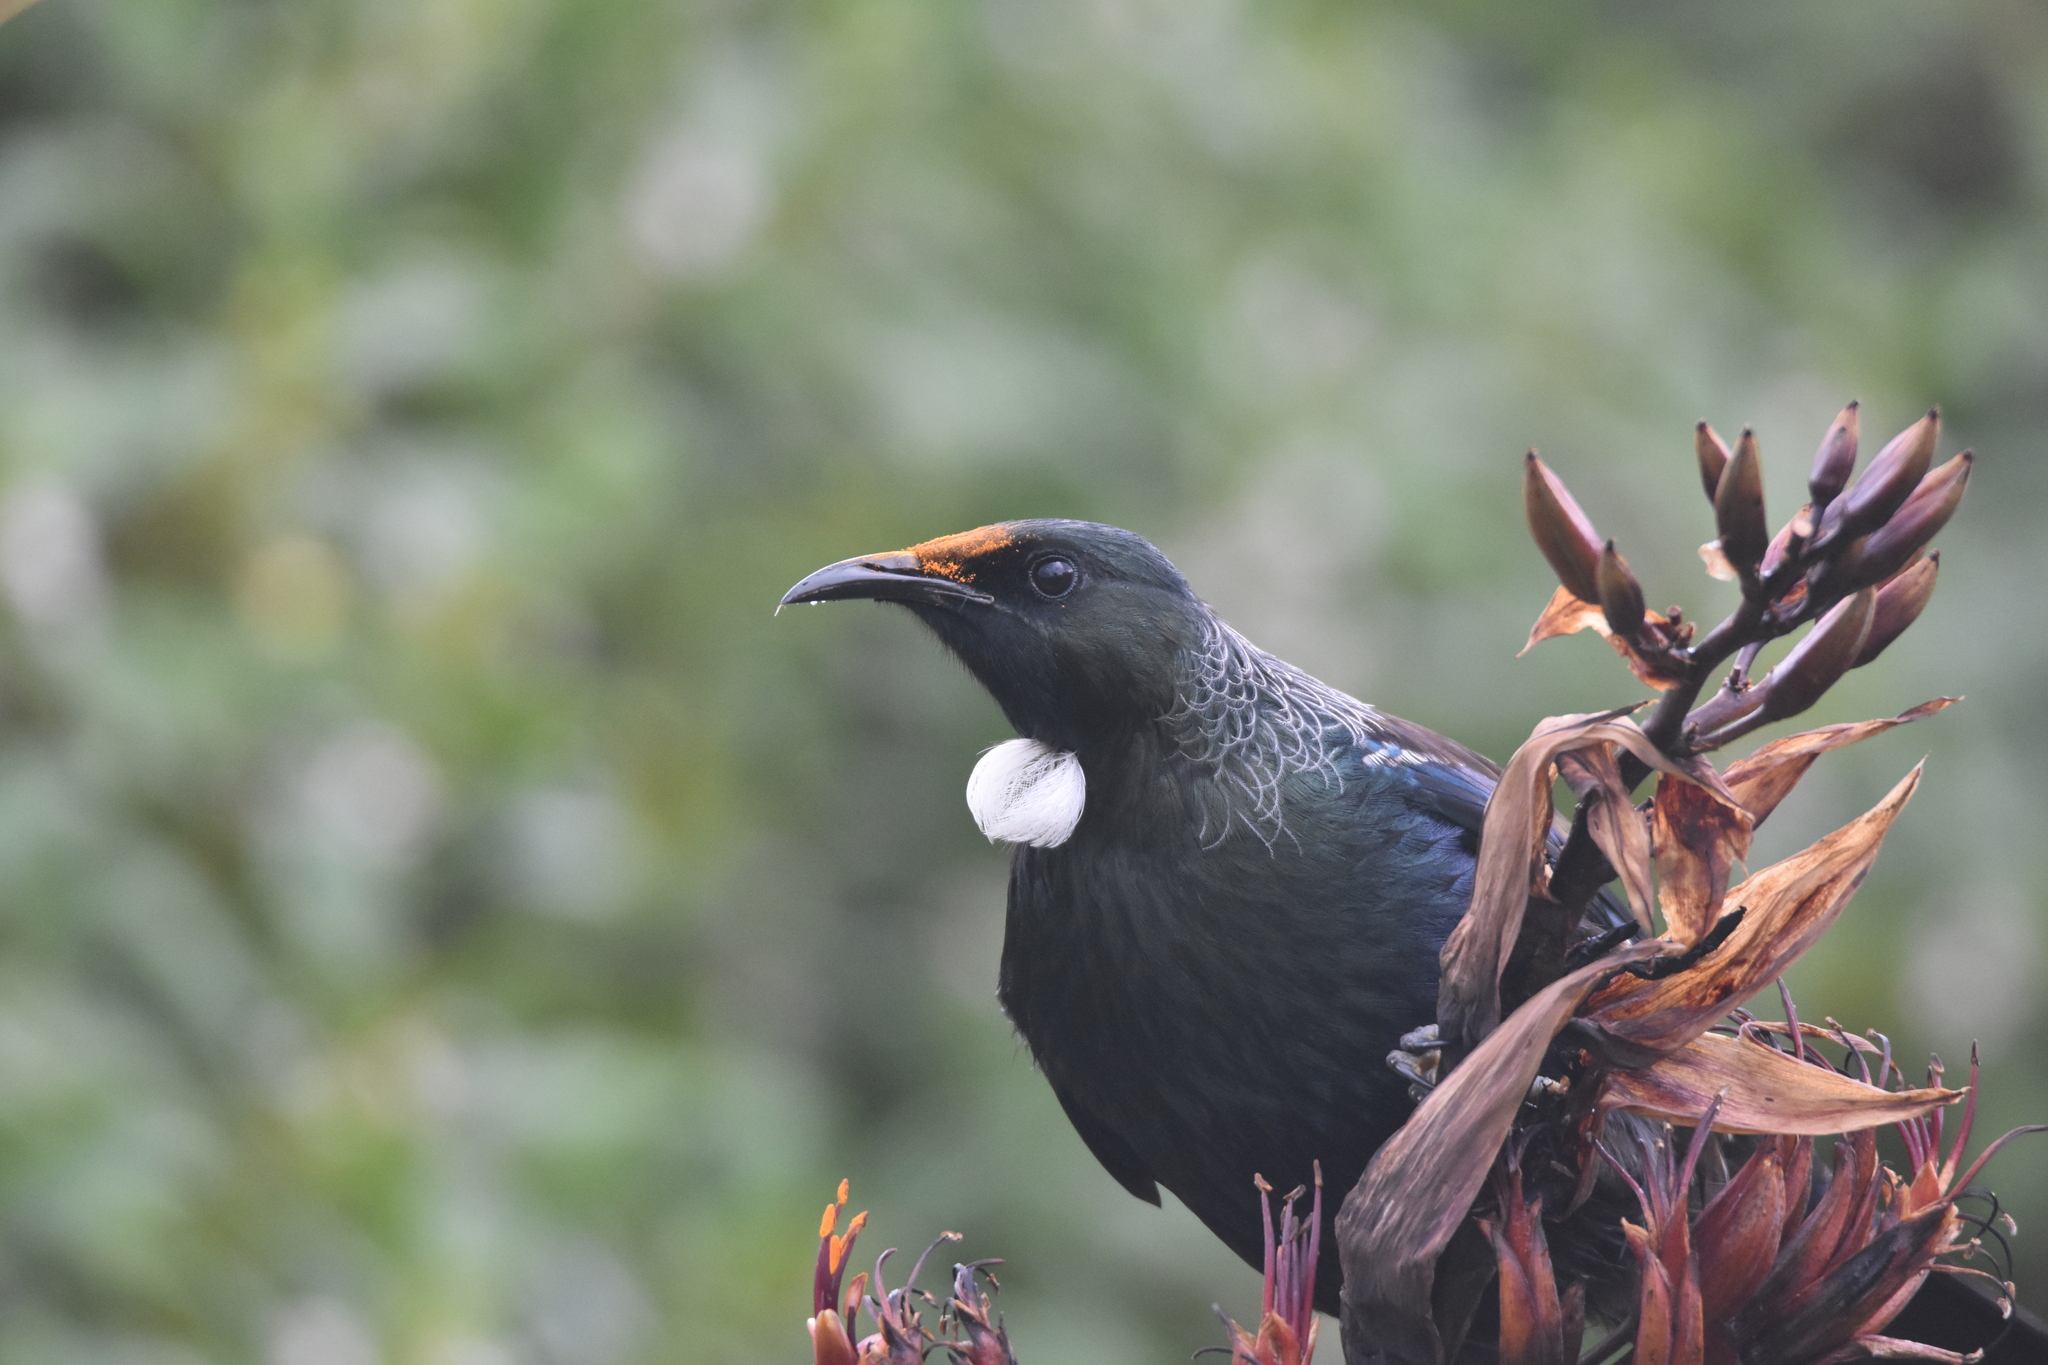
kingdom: Animalia
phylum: Chordata
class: Aves
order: Passeriformes
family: Meliphagidae
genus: Prosthemadera
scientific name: Prosthemadera novaeseelandiae
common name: Tui
